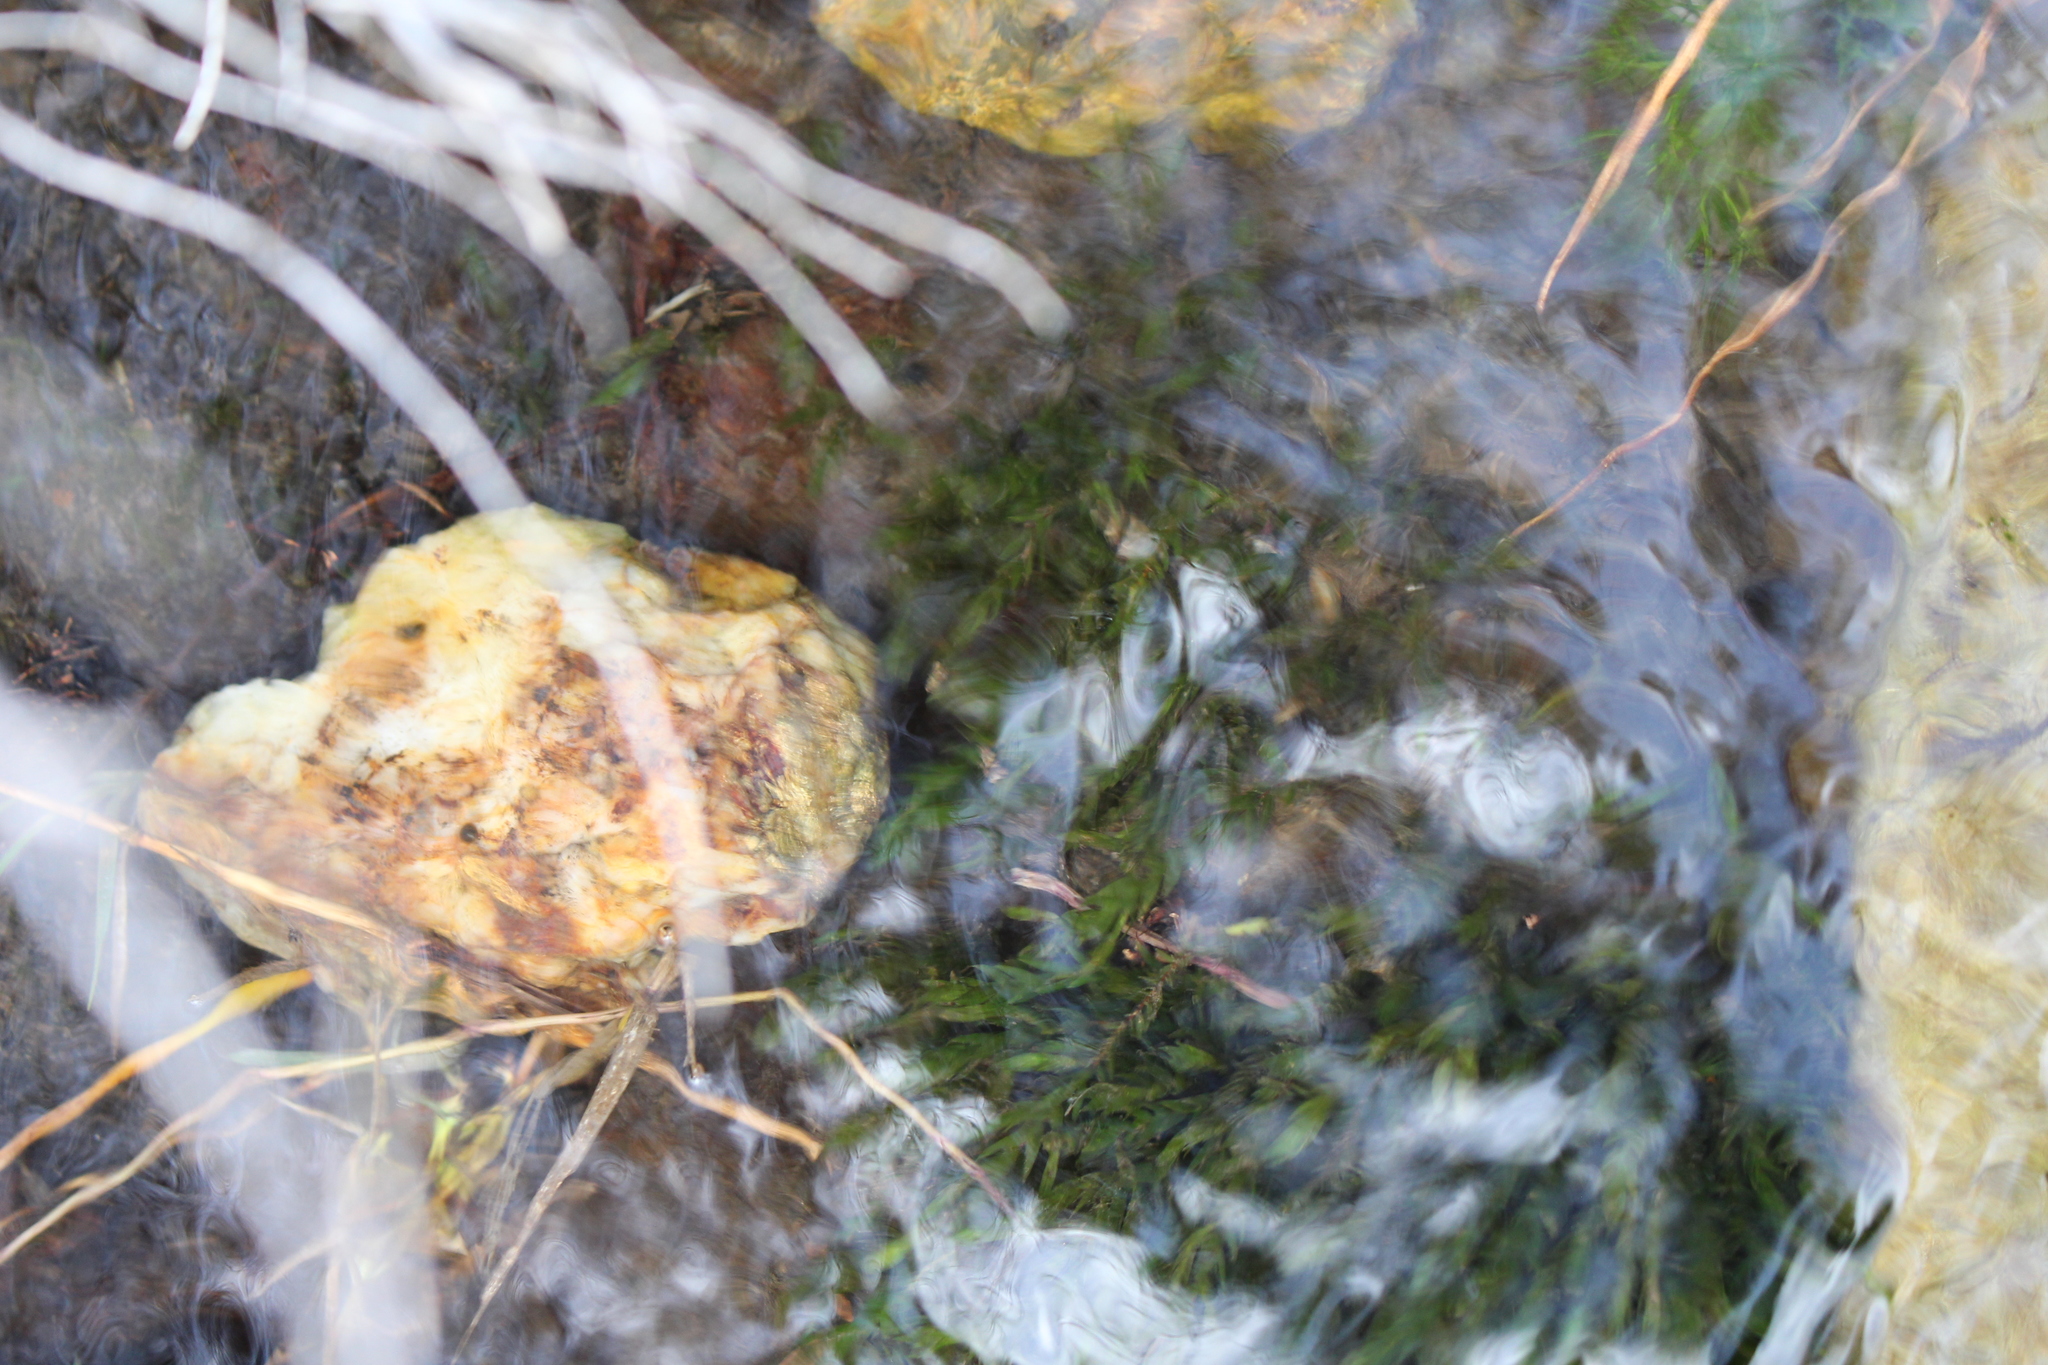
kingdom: Plantae
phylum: Bryophyta
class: Bryopsida
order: Hypnales
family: Fontinalaceae
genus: Fontinalis
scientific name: Fontinalis antipyretica
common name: Greater water-moss
